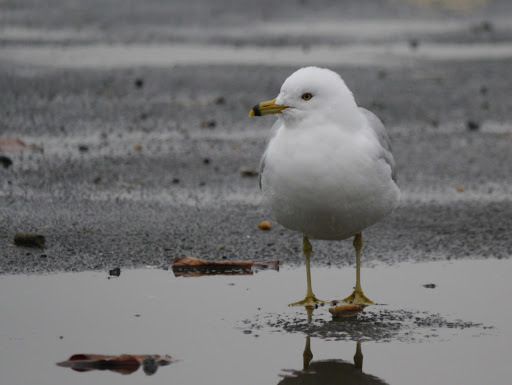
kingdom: Animalia
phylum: Chordata
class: Aves
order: Charadriiformes
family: Laridae
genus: Larus
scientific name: Larus delawarensis
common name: Ring-billed gull
